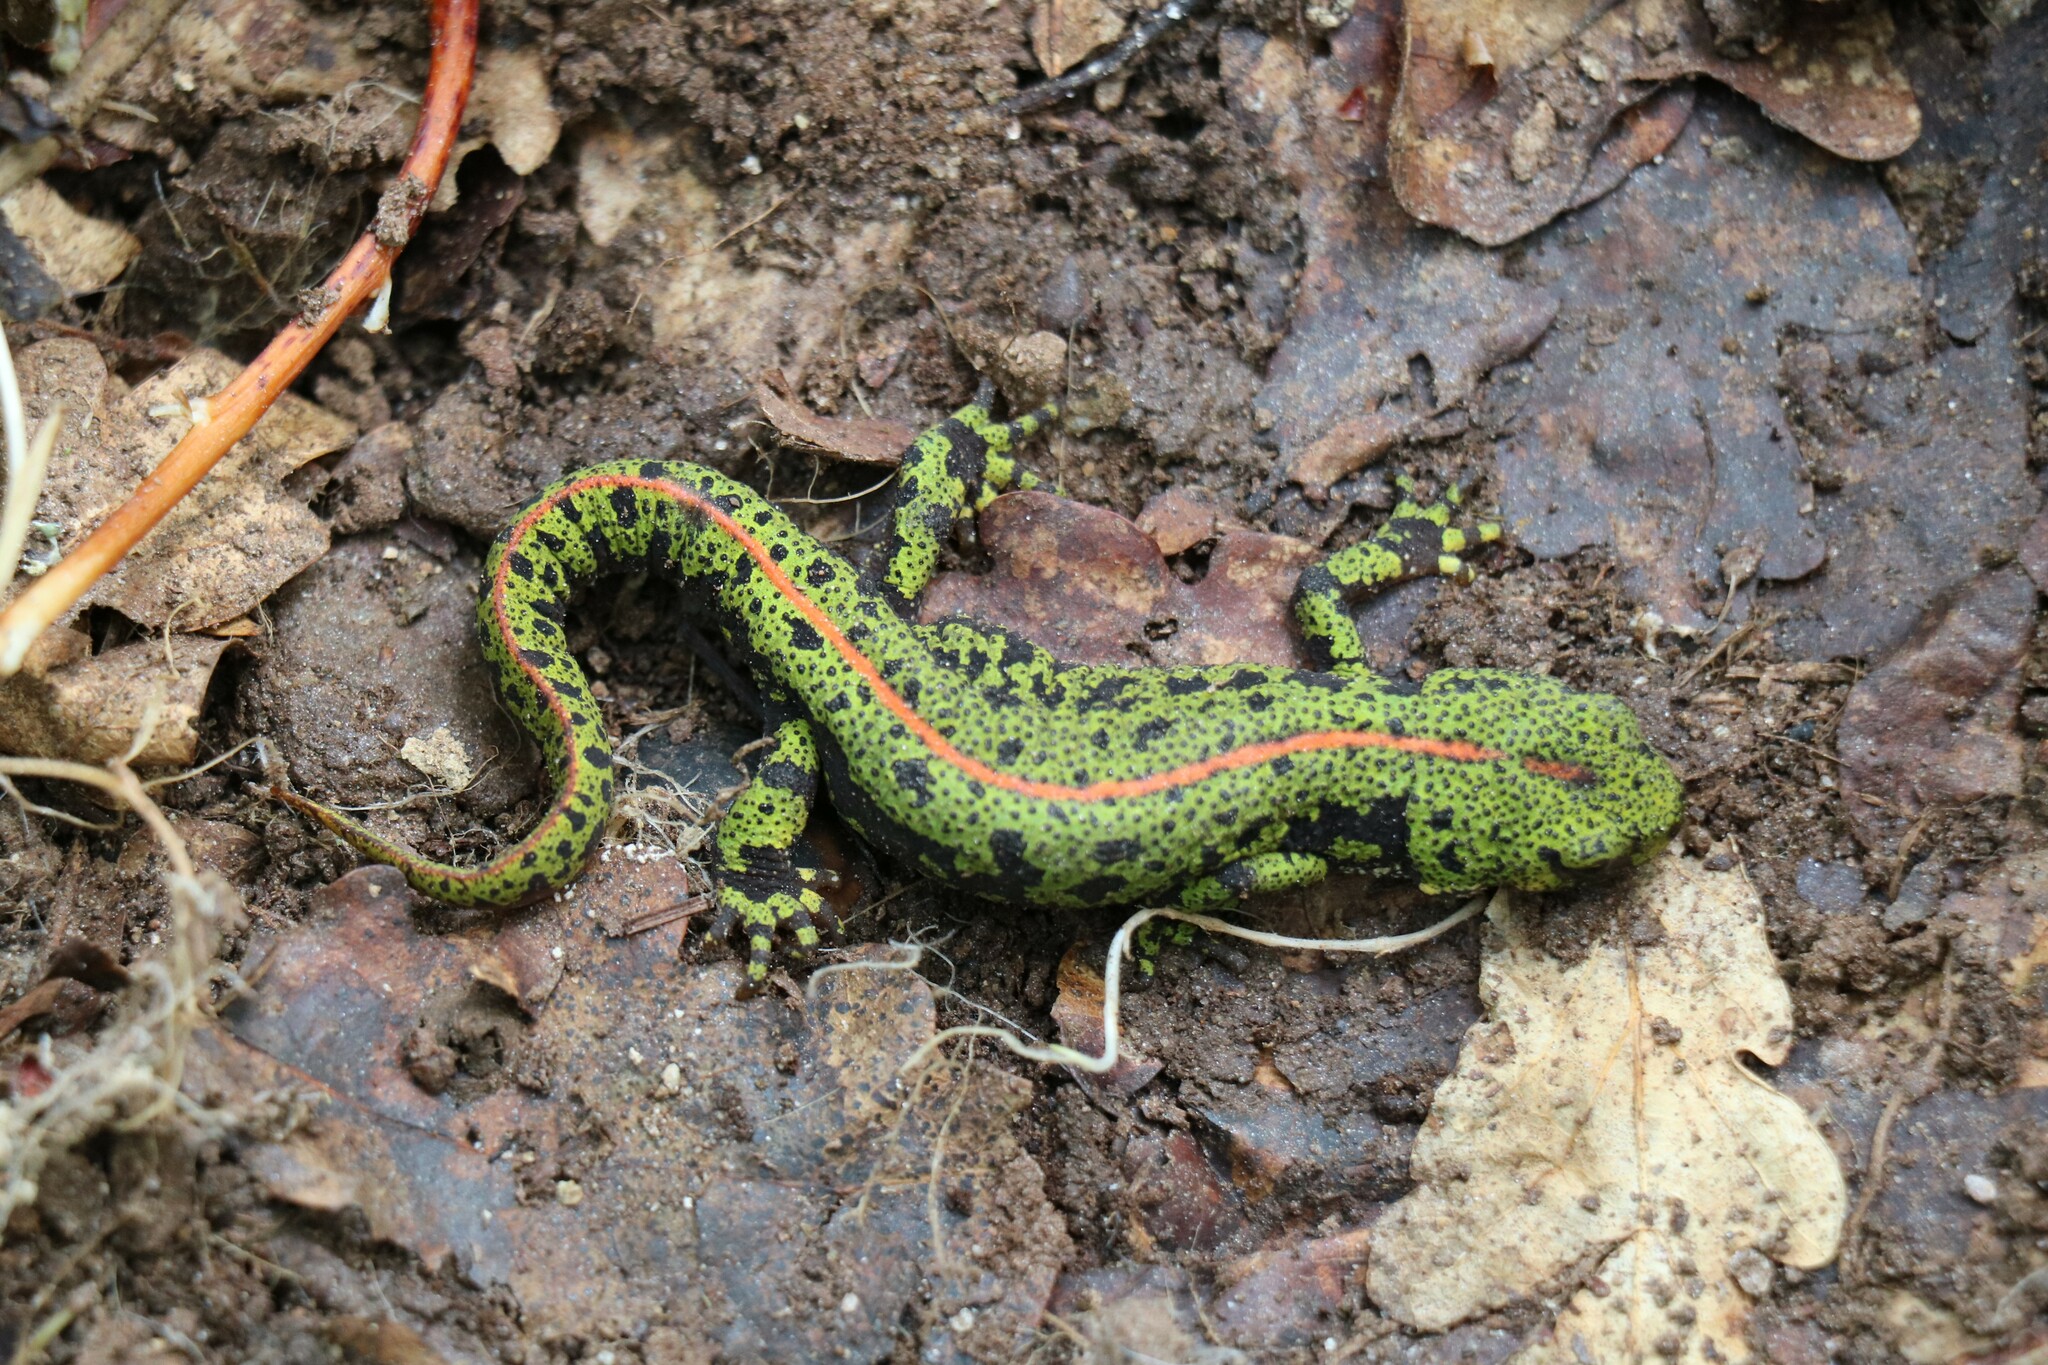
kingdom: Animalia
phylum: Chordata
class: Amphibia
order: Caudata
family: Salamandridae
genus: Triturus
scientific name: Triturus marmoratus
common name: Marbled newt
